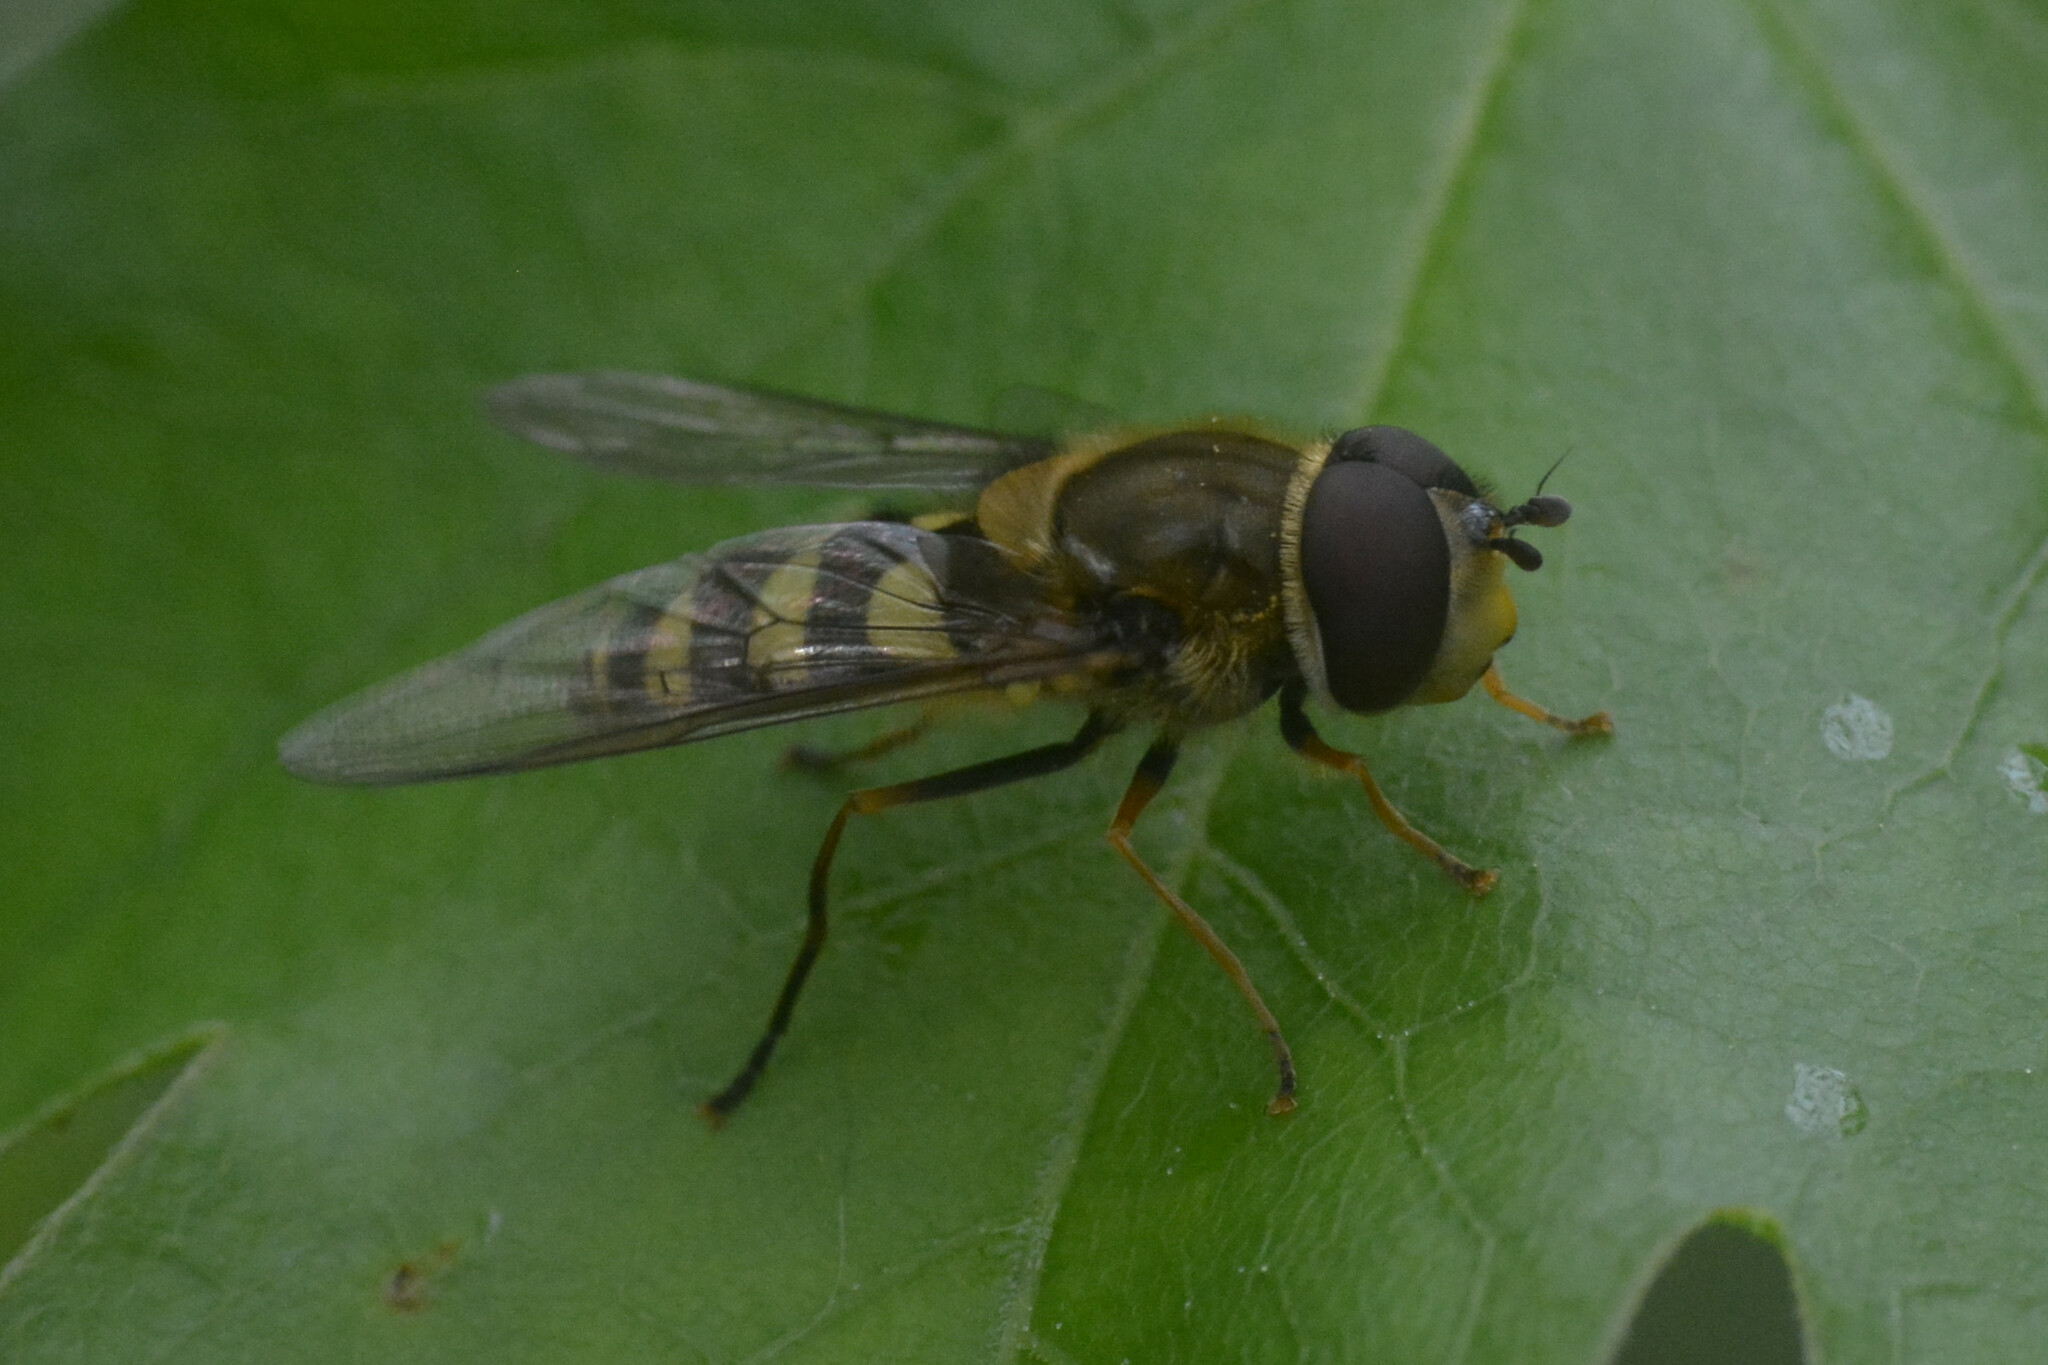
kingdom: Animalia
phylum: Arthropoda
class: Insecta
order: Diptera
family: Syrphidae
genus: Syrphus
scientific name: Syrphus
